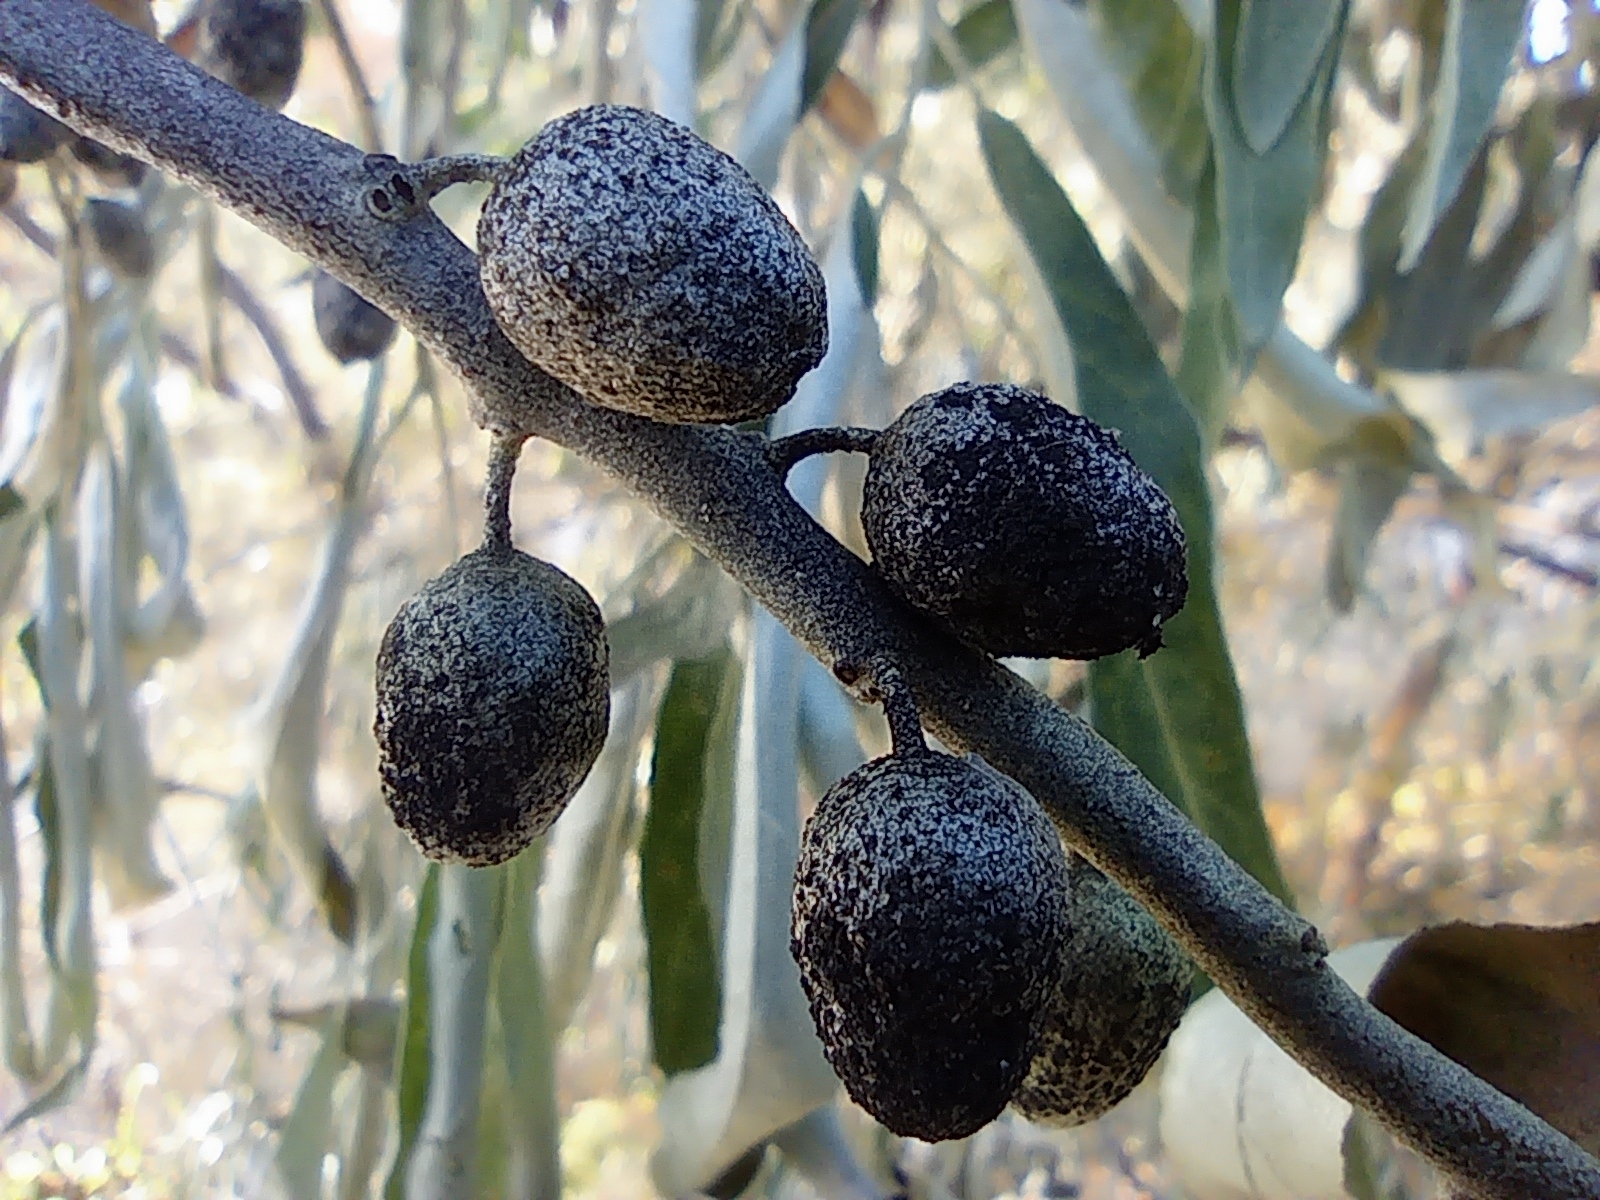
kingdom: Plantae
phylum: Tracheophyta
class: Magnoliopsida
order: Rosales
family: Elaeagnaceae
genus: Elaeagnus
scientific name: Elaeagnus angustifolia
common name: Russian olive
